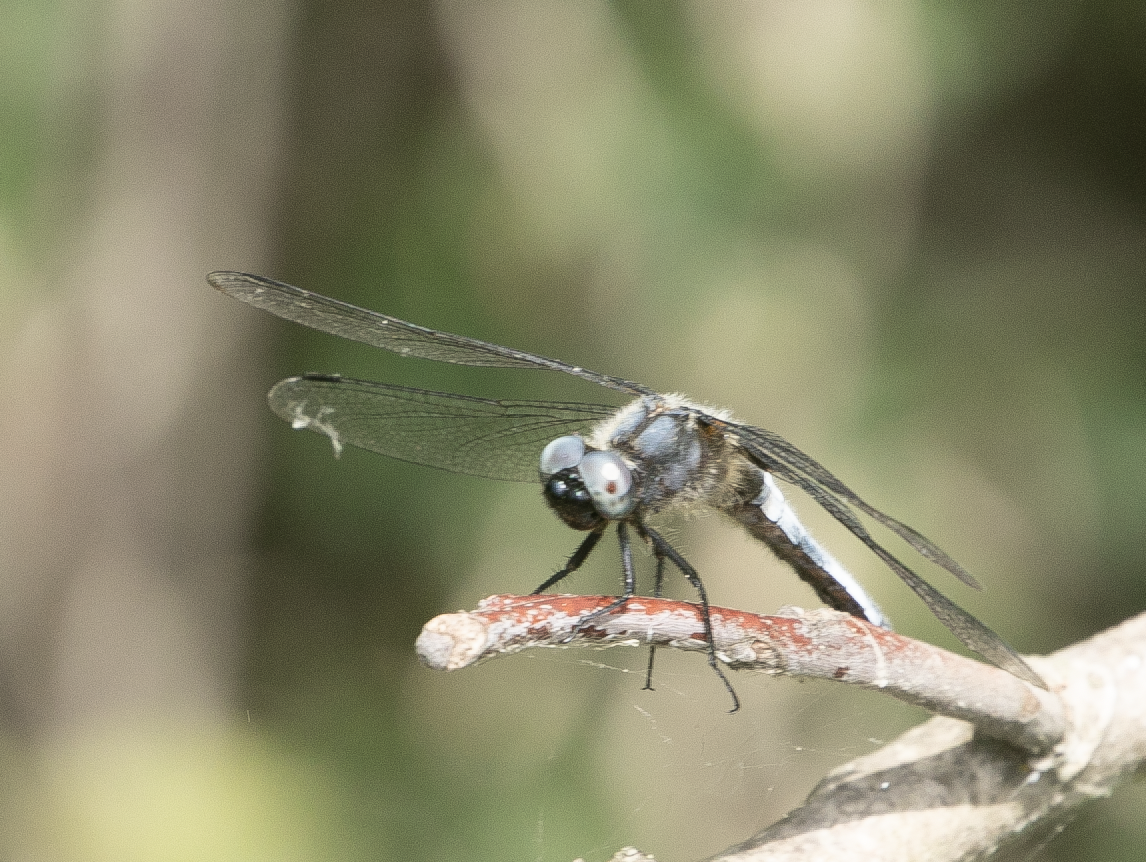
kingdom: Animalia
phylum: Arthropoda
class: Insecta
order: Odonata
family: Libellulidae
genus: Libellula
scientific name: Libellula fulva
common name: Blue chaser
